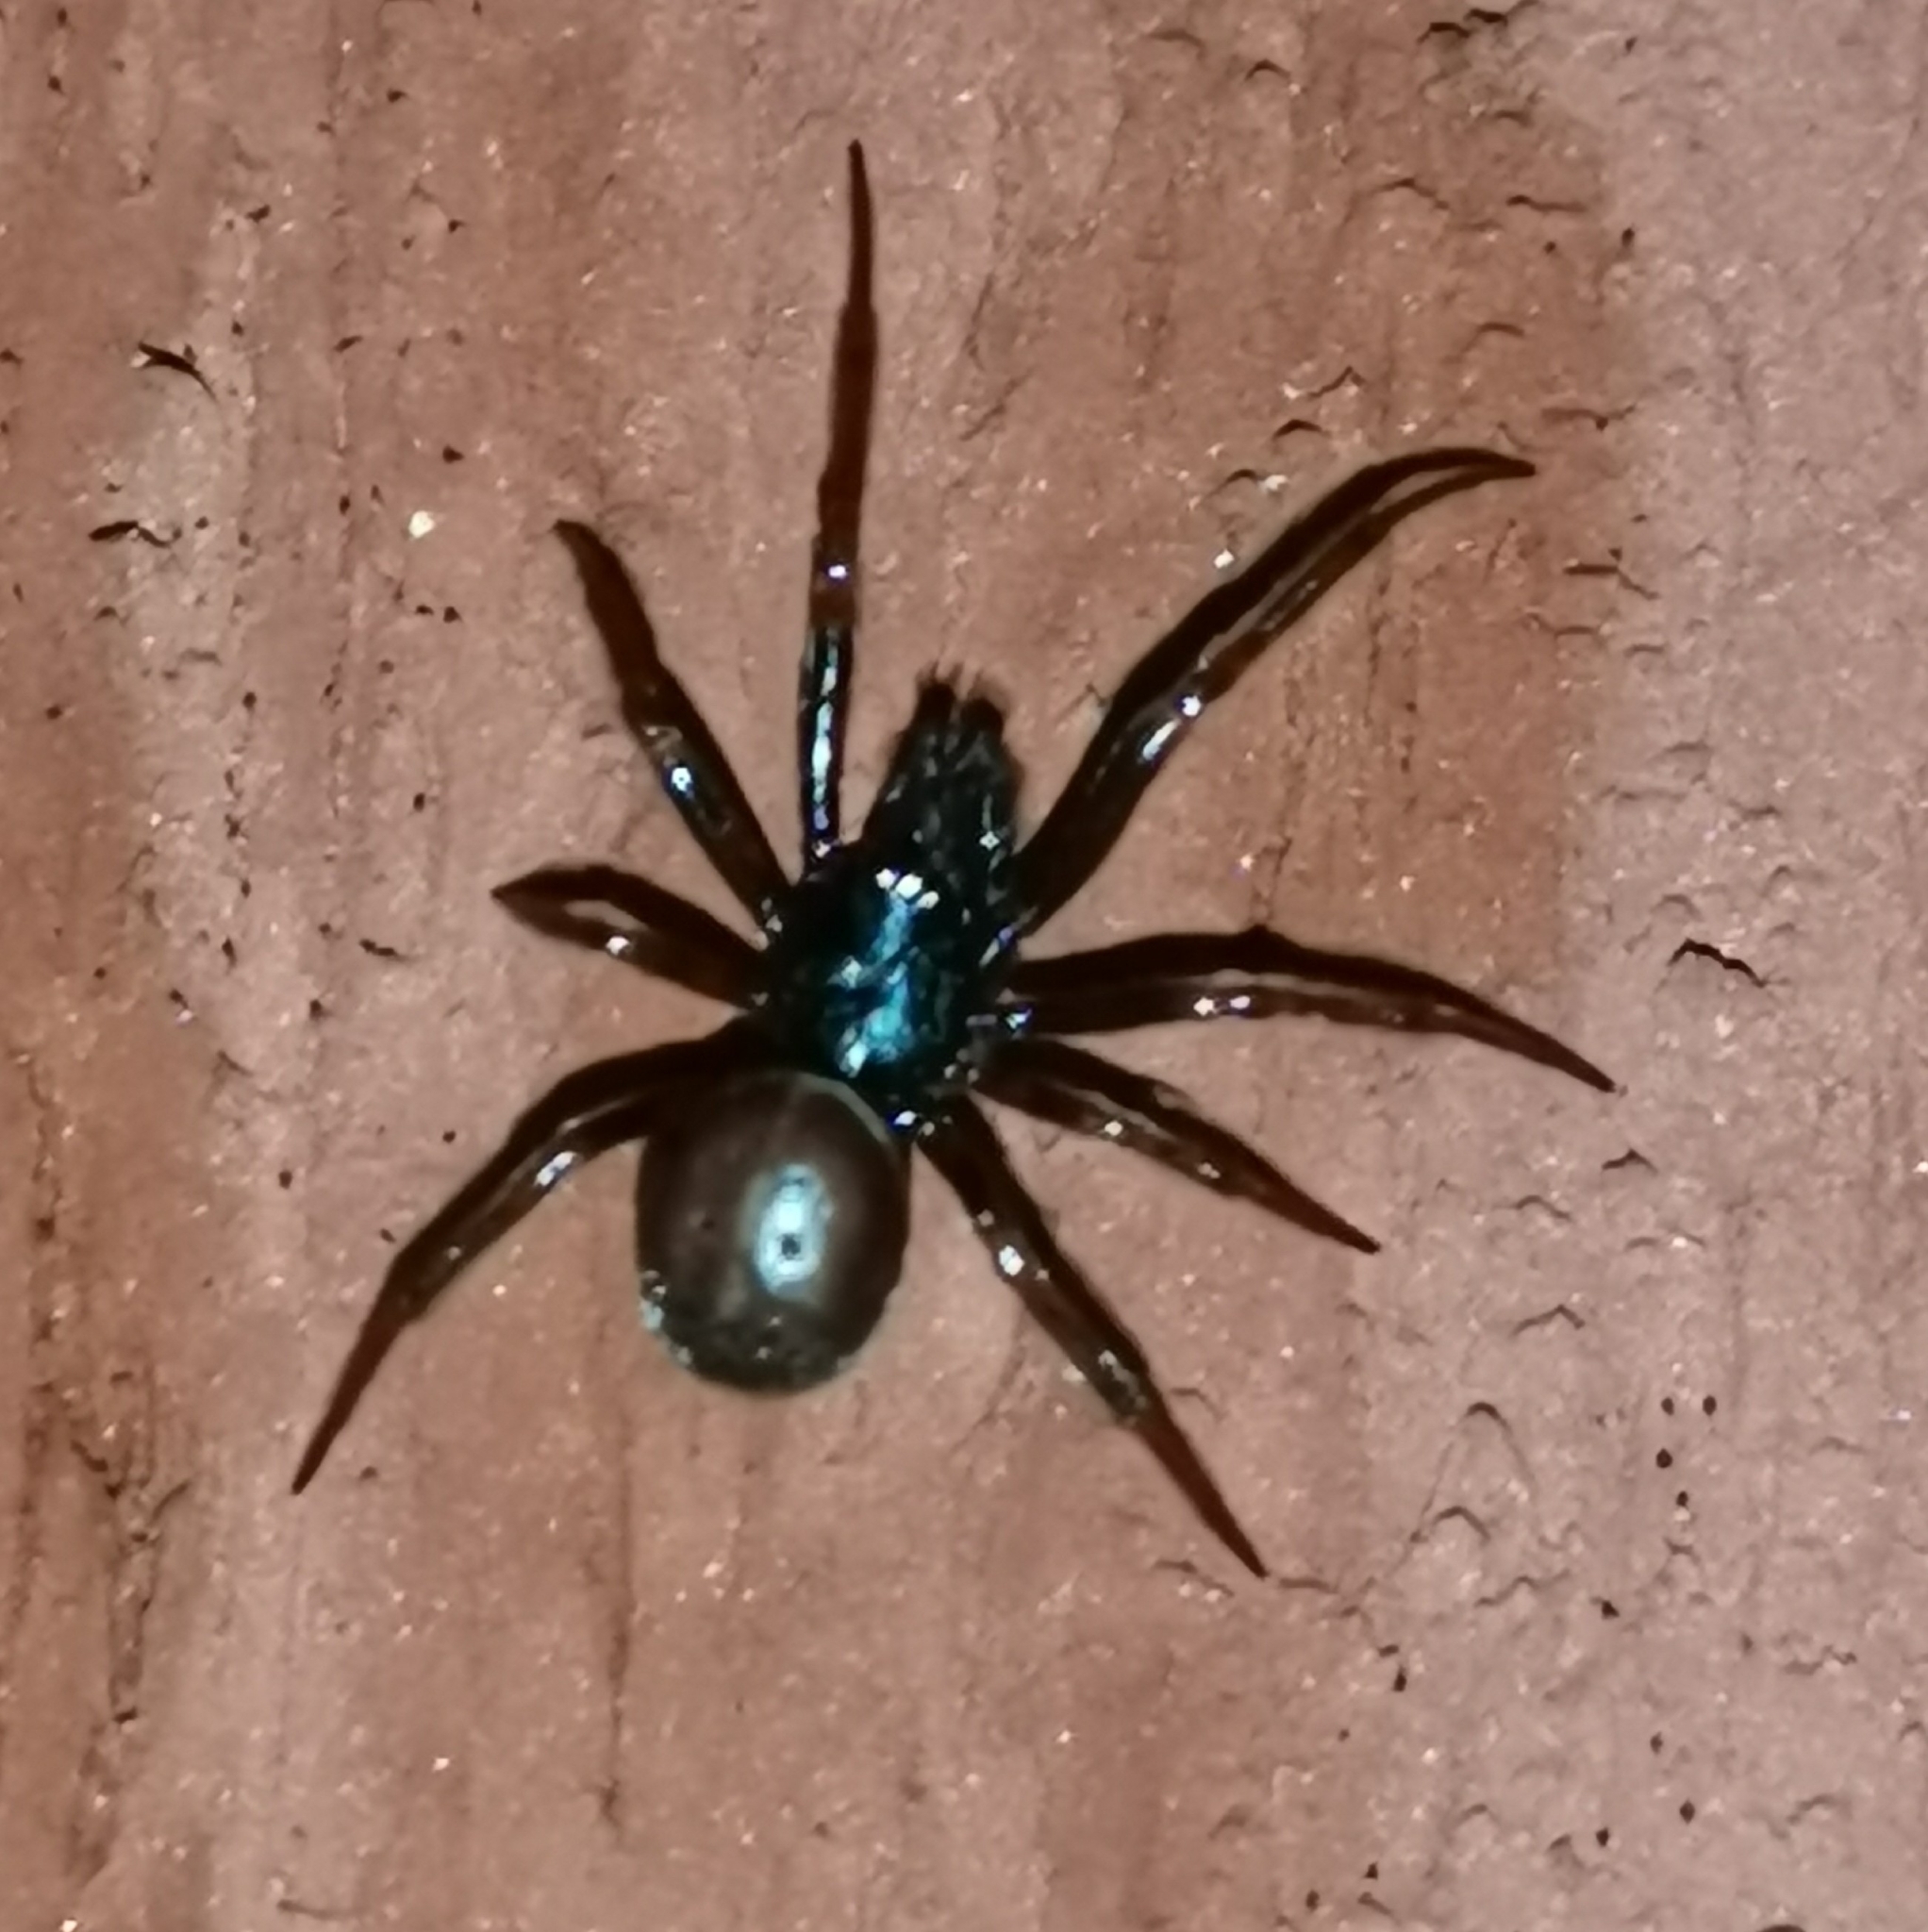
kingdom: Animalia
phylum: Arthropoda
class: Arachnida
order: Araneae
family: Theridiidae
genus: Steatoda
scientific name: Steatoda bipunctata
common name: False widow
